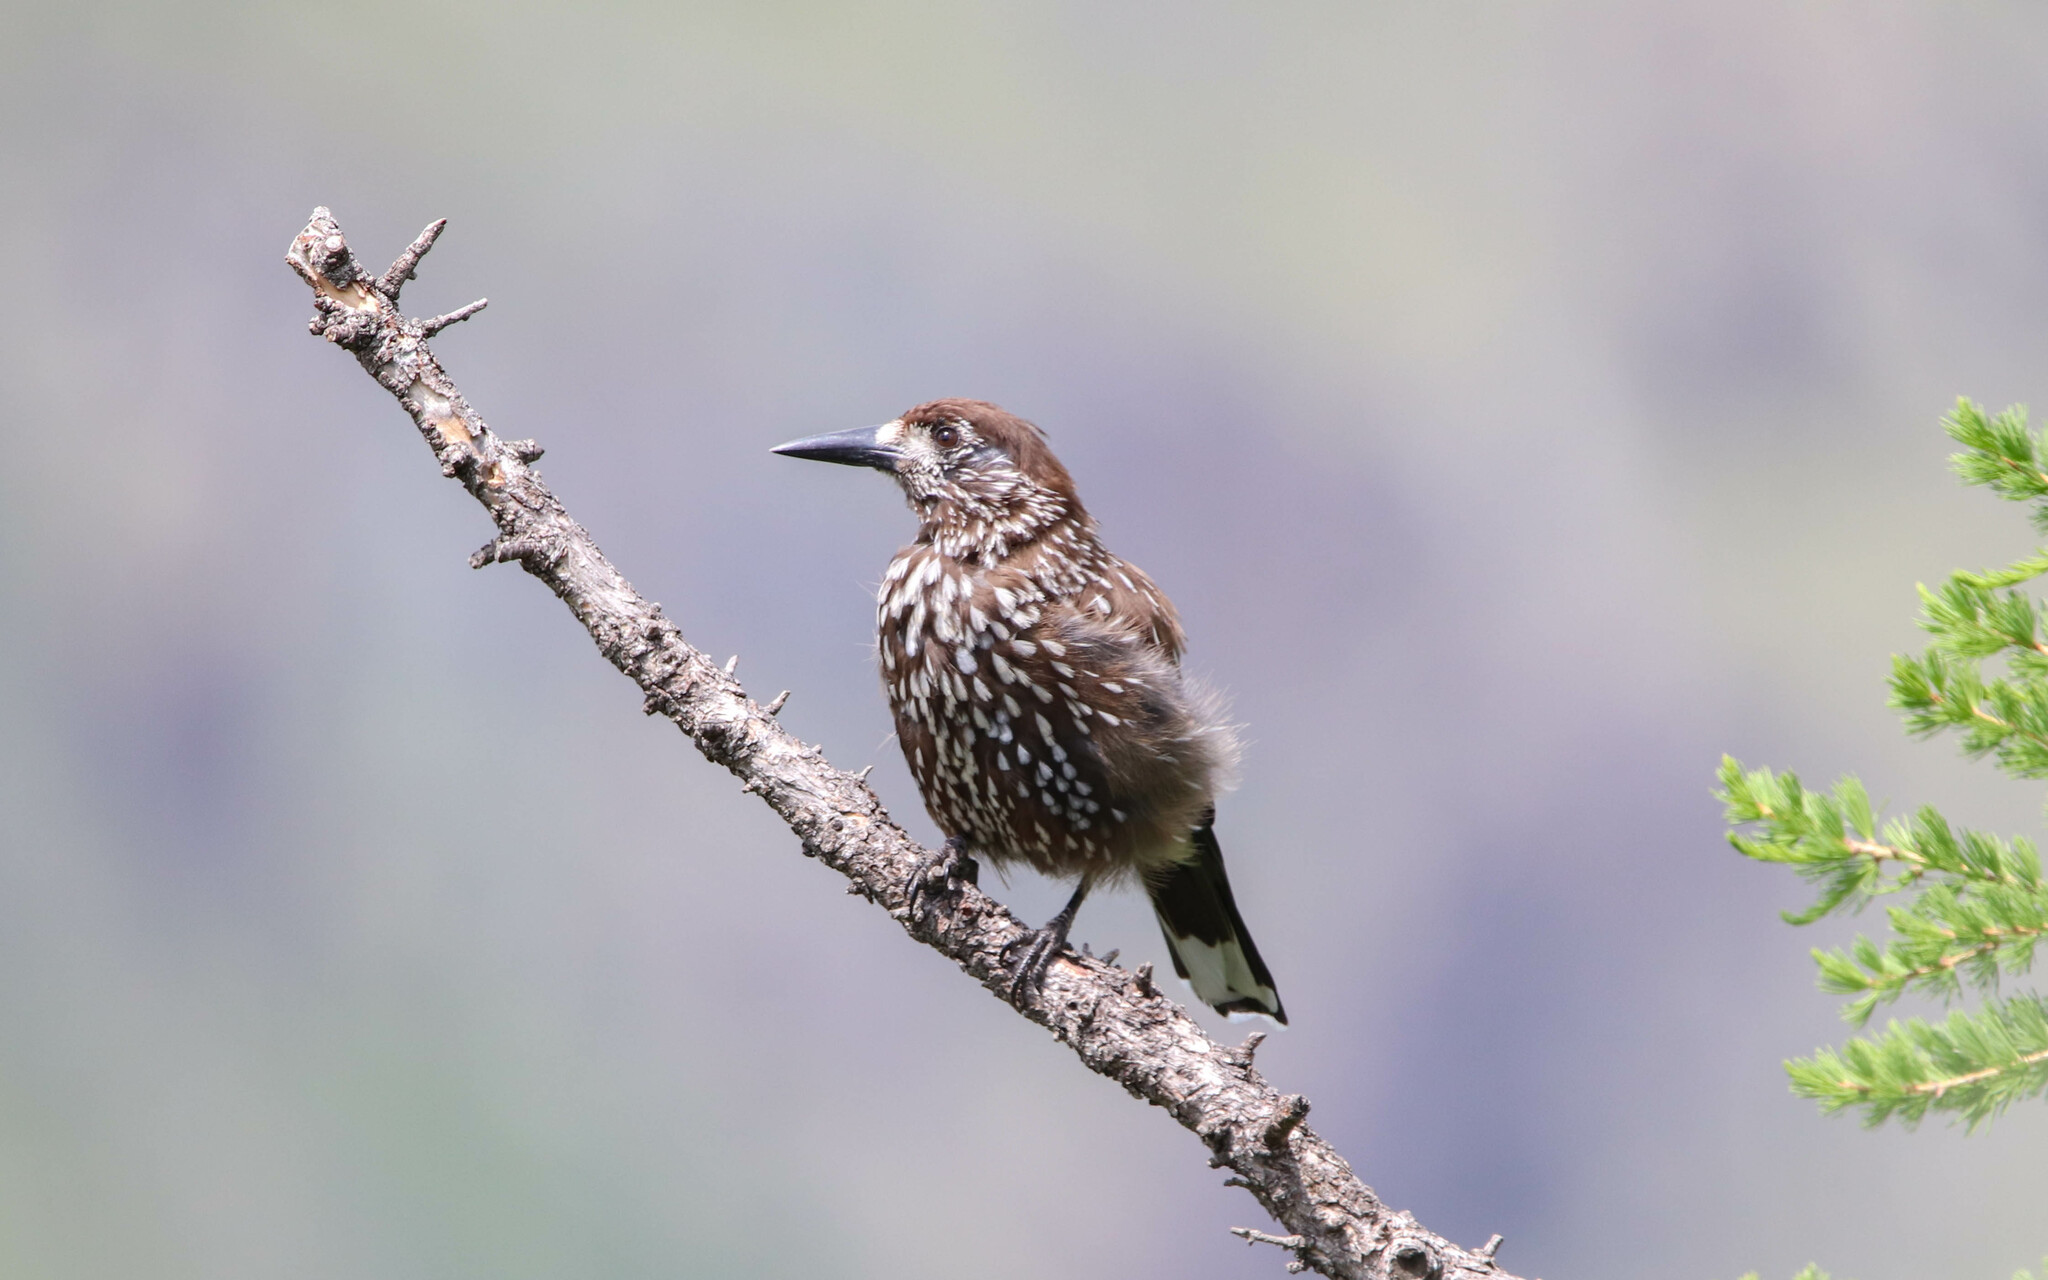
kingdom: Animalia
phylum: Chordata
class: Aves
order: Passeriformes
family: Corvidae
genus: Nucifraga
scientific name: Nucifraga caryocatactes
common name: Spotted nutcracker
